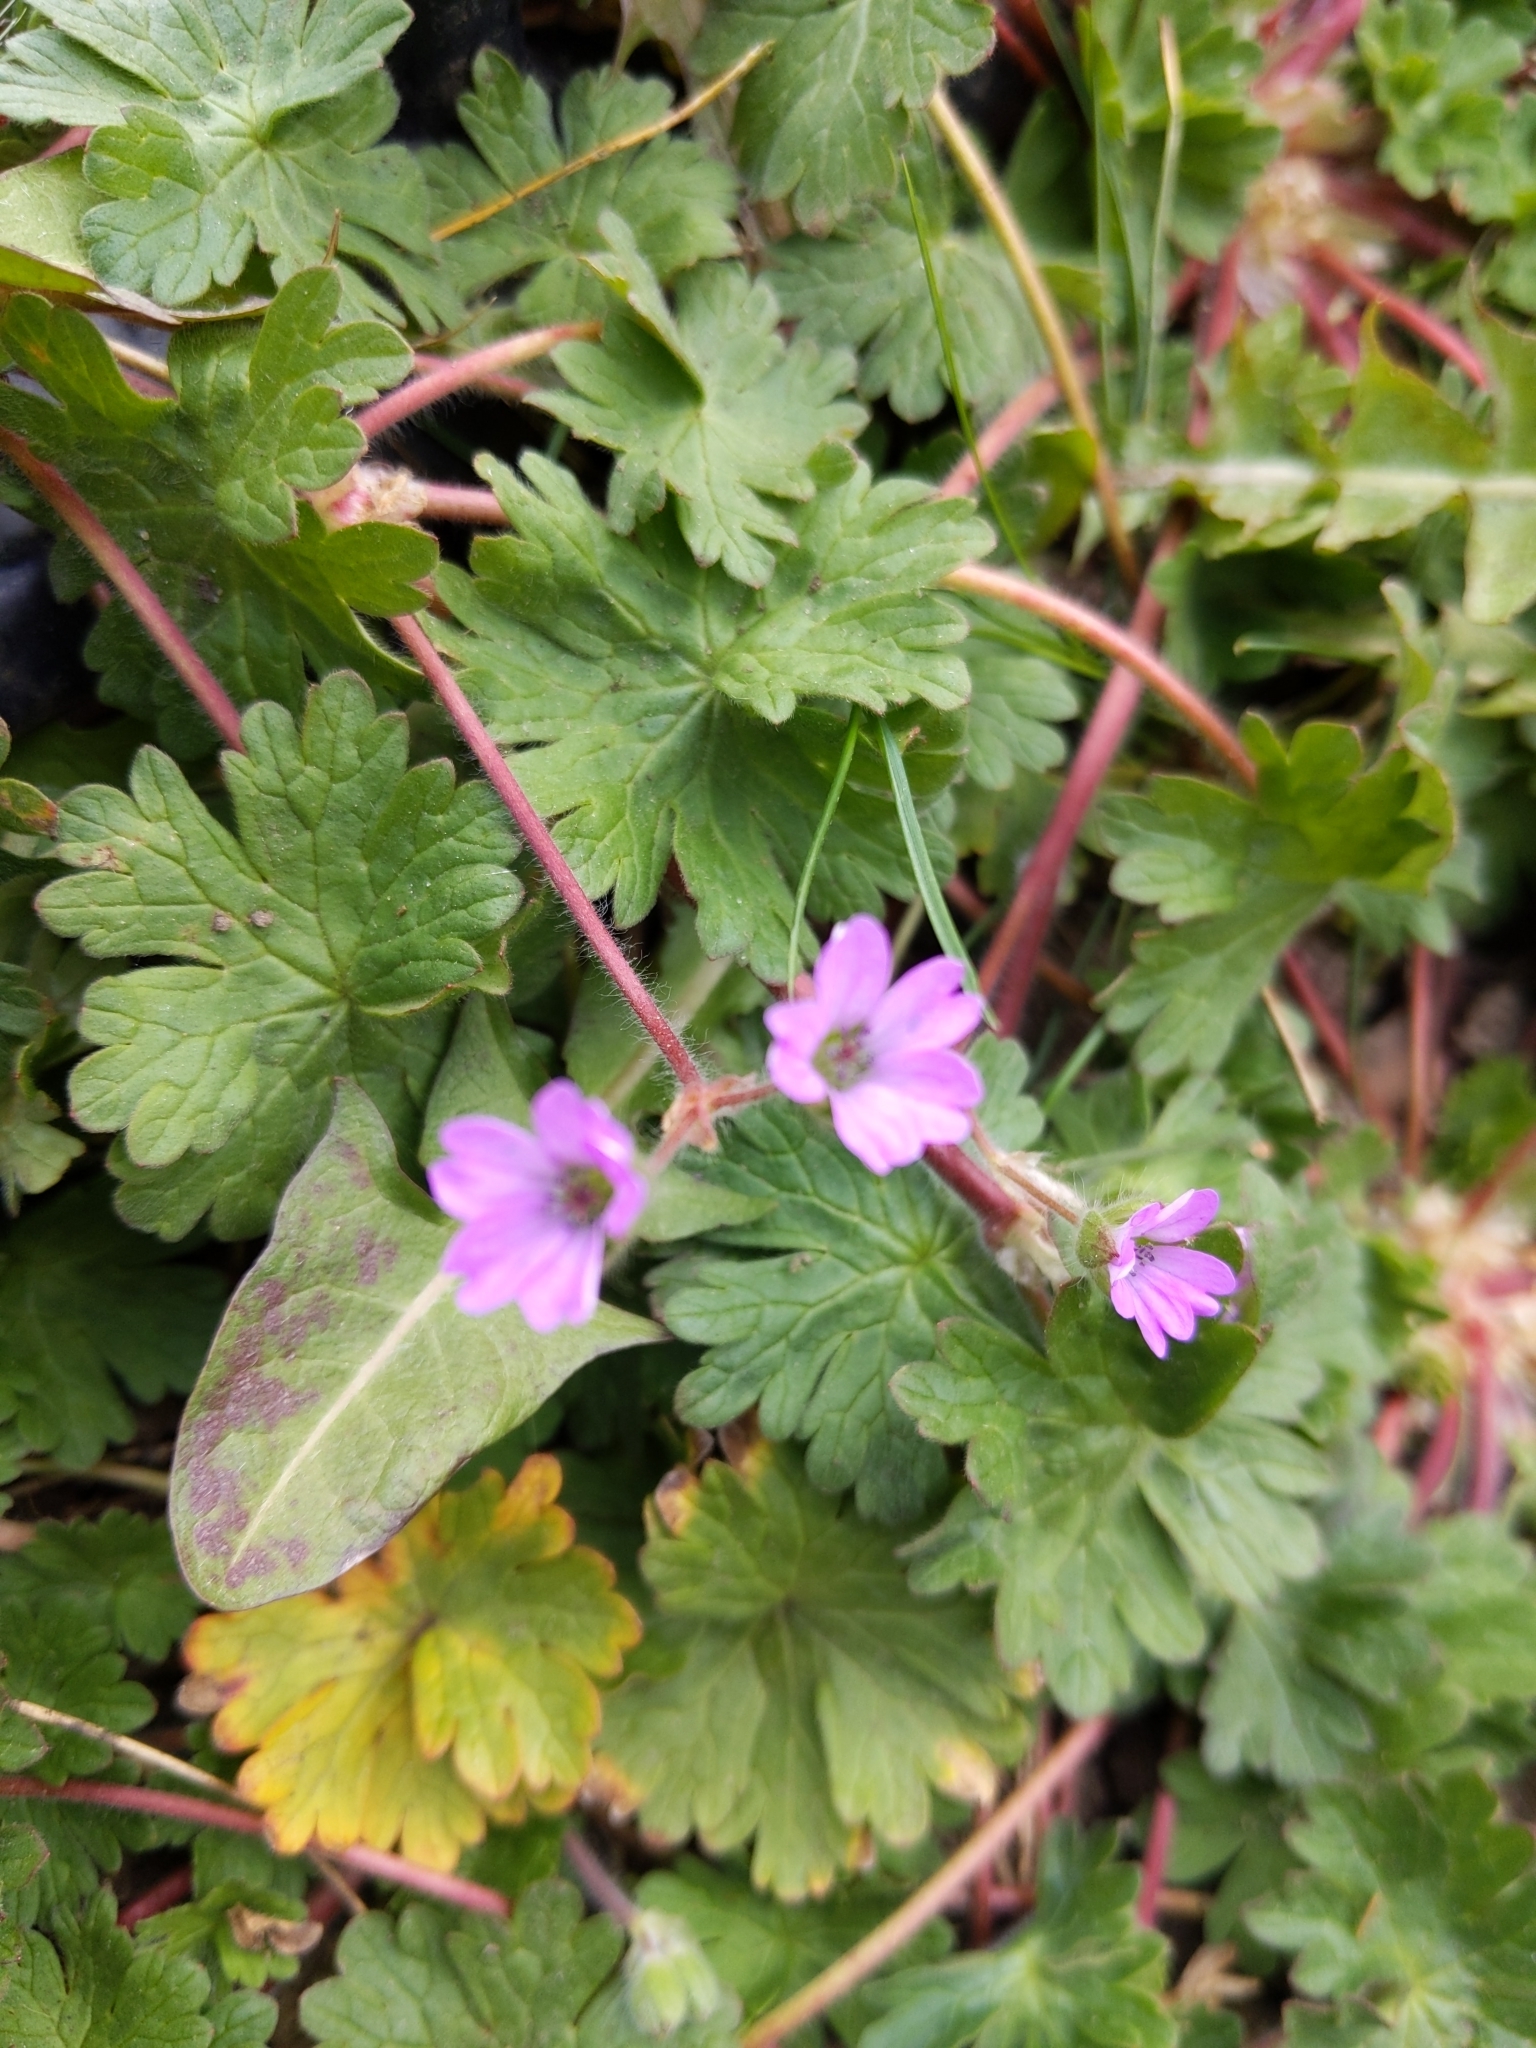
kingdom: Plantae
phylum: Tracheophyta
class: Magnoliopsida
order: Geraniales
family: Geraniaceae
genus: Geranium
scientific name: Geranium molle
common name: Dove's-foot crane's-bill
